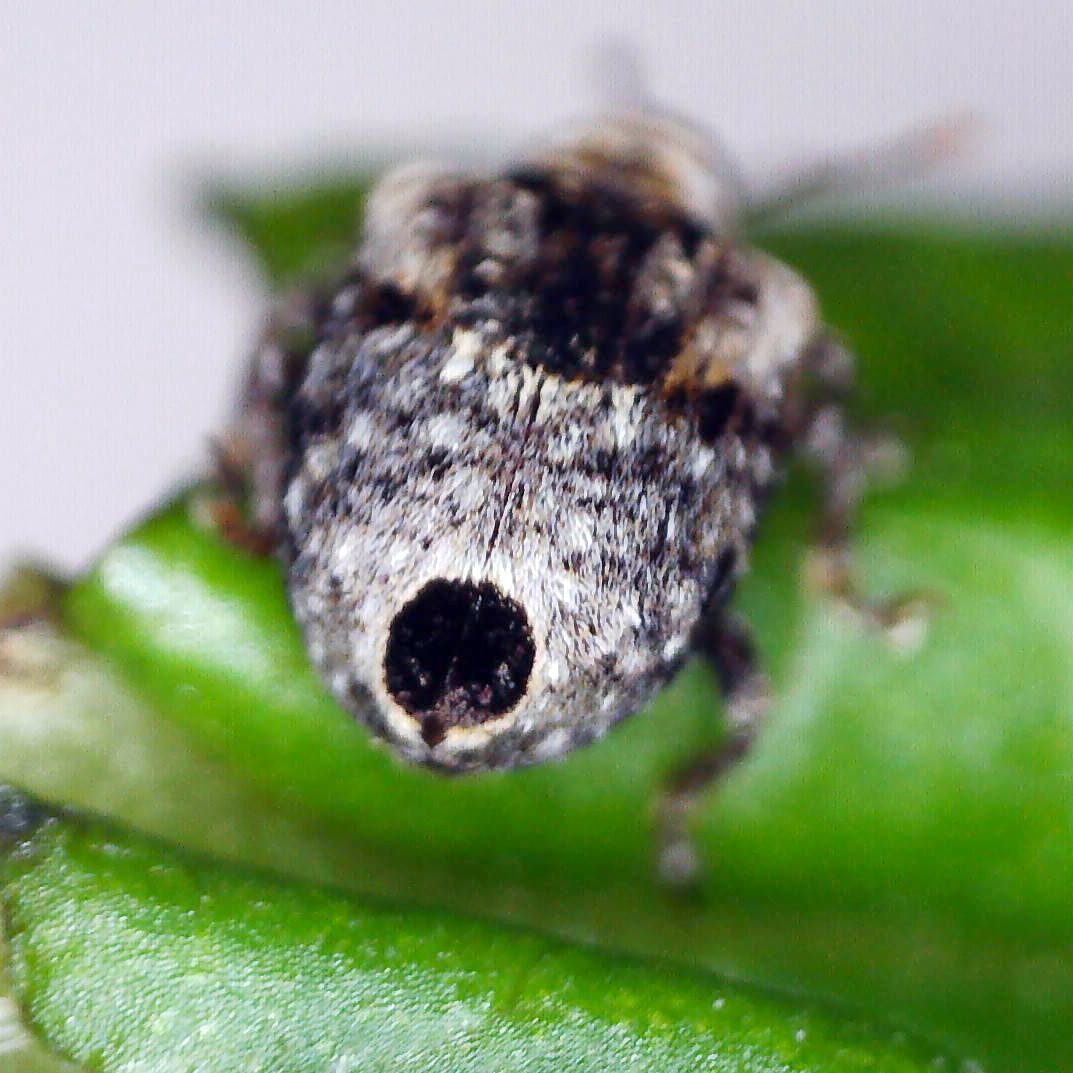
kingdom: Animalia
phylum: Arthropoda
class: Insecta
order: Coleoptera
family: Curculionidae
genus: Cionus
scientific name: Cionus alauda
